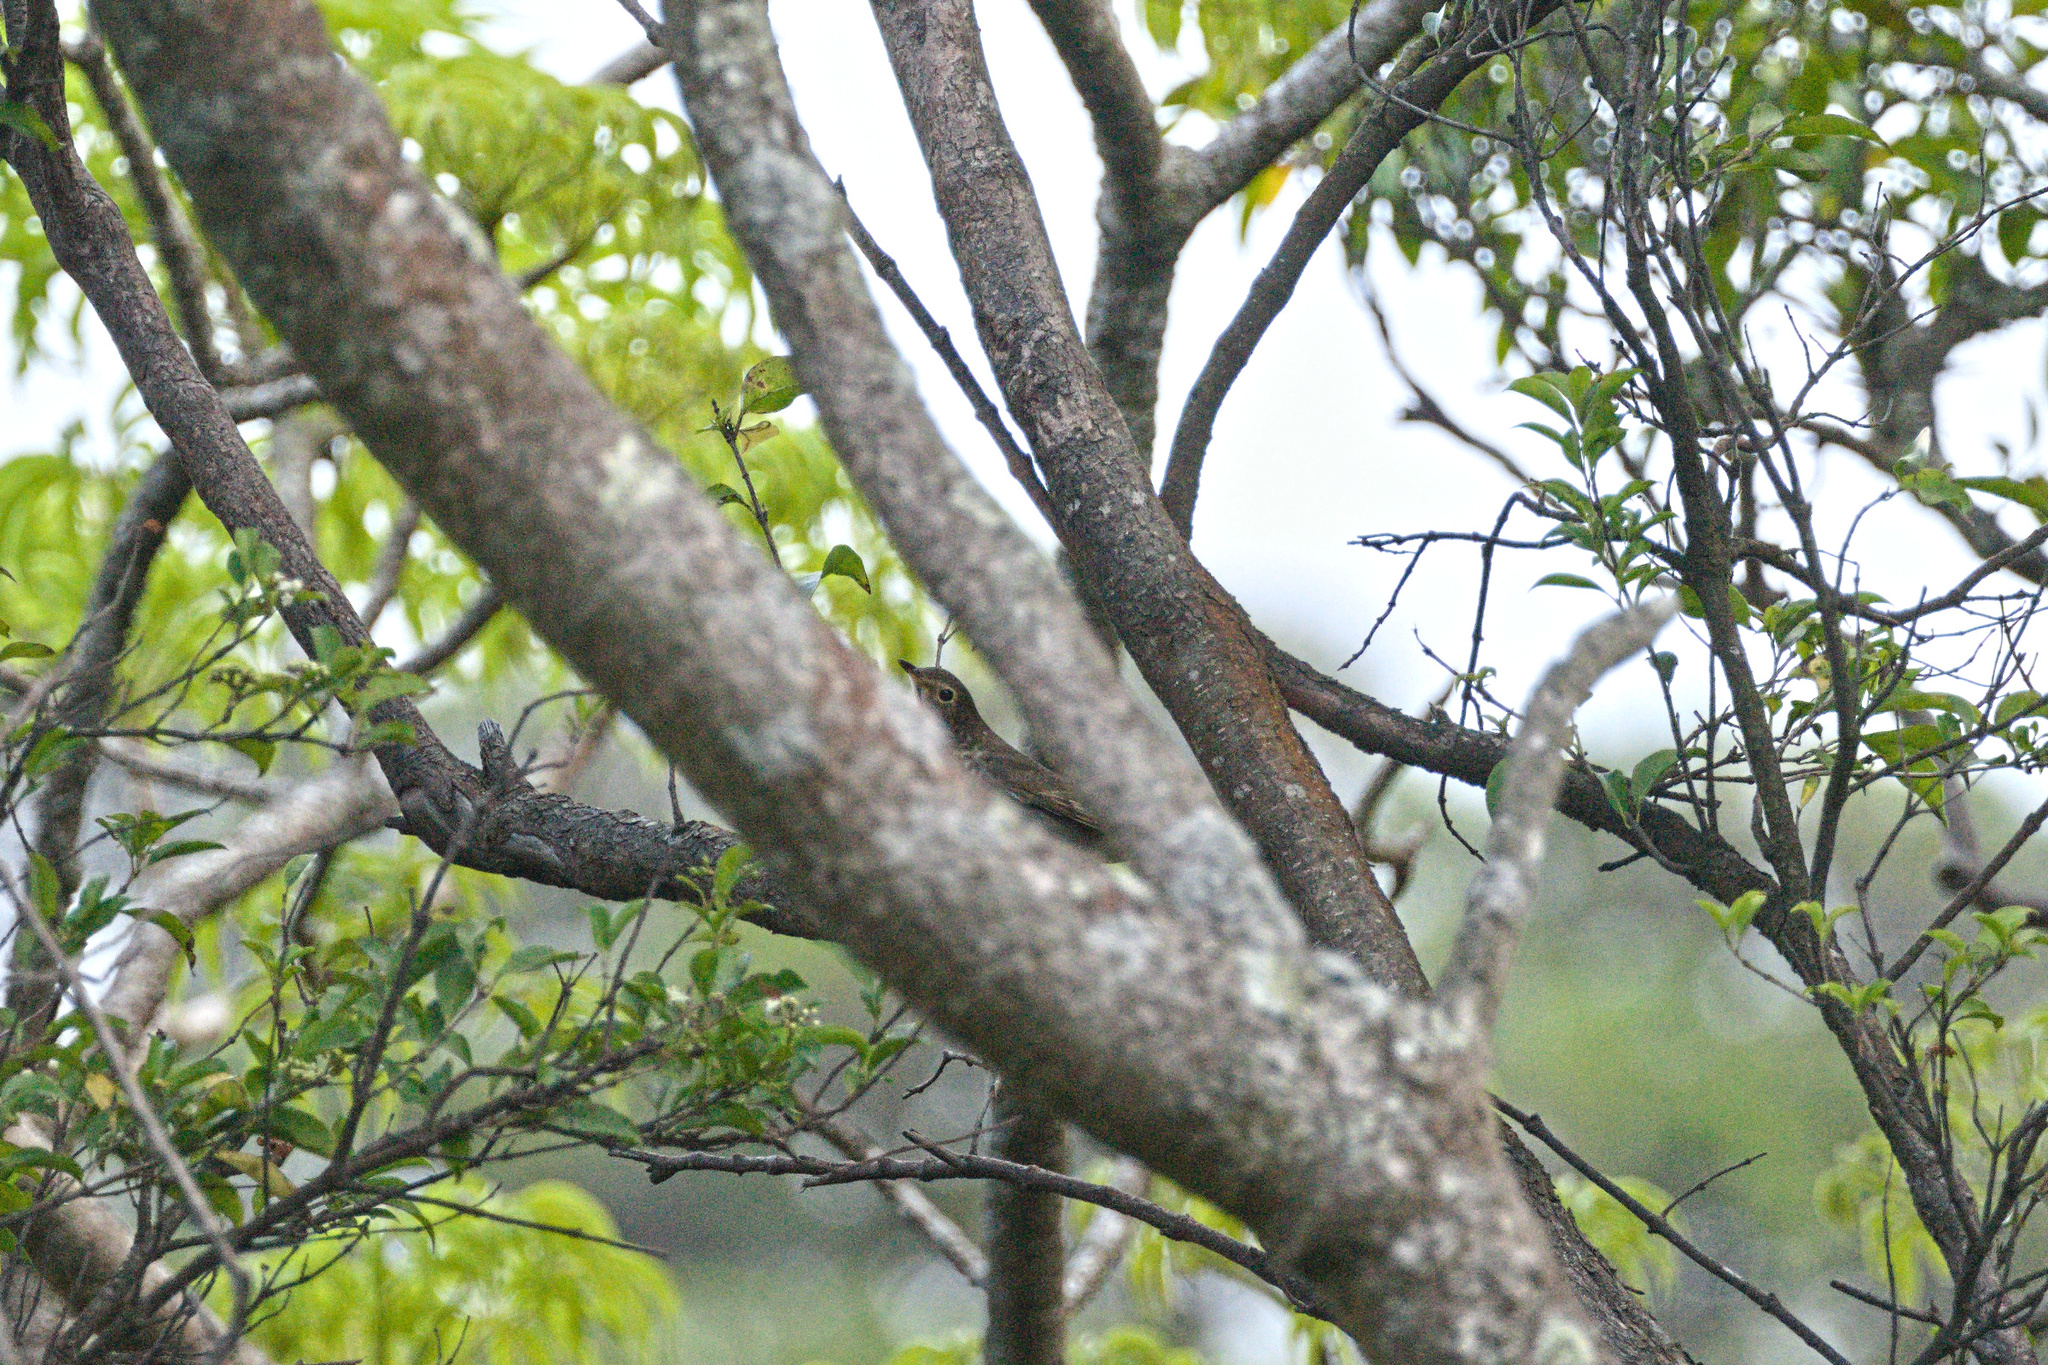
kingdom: Animalia
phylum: Chordata
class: Aves
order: Passeriformes
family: Turdidae
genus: Catharus
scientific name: Catharus ustulatus
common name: Swainson's thrush
